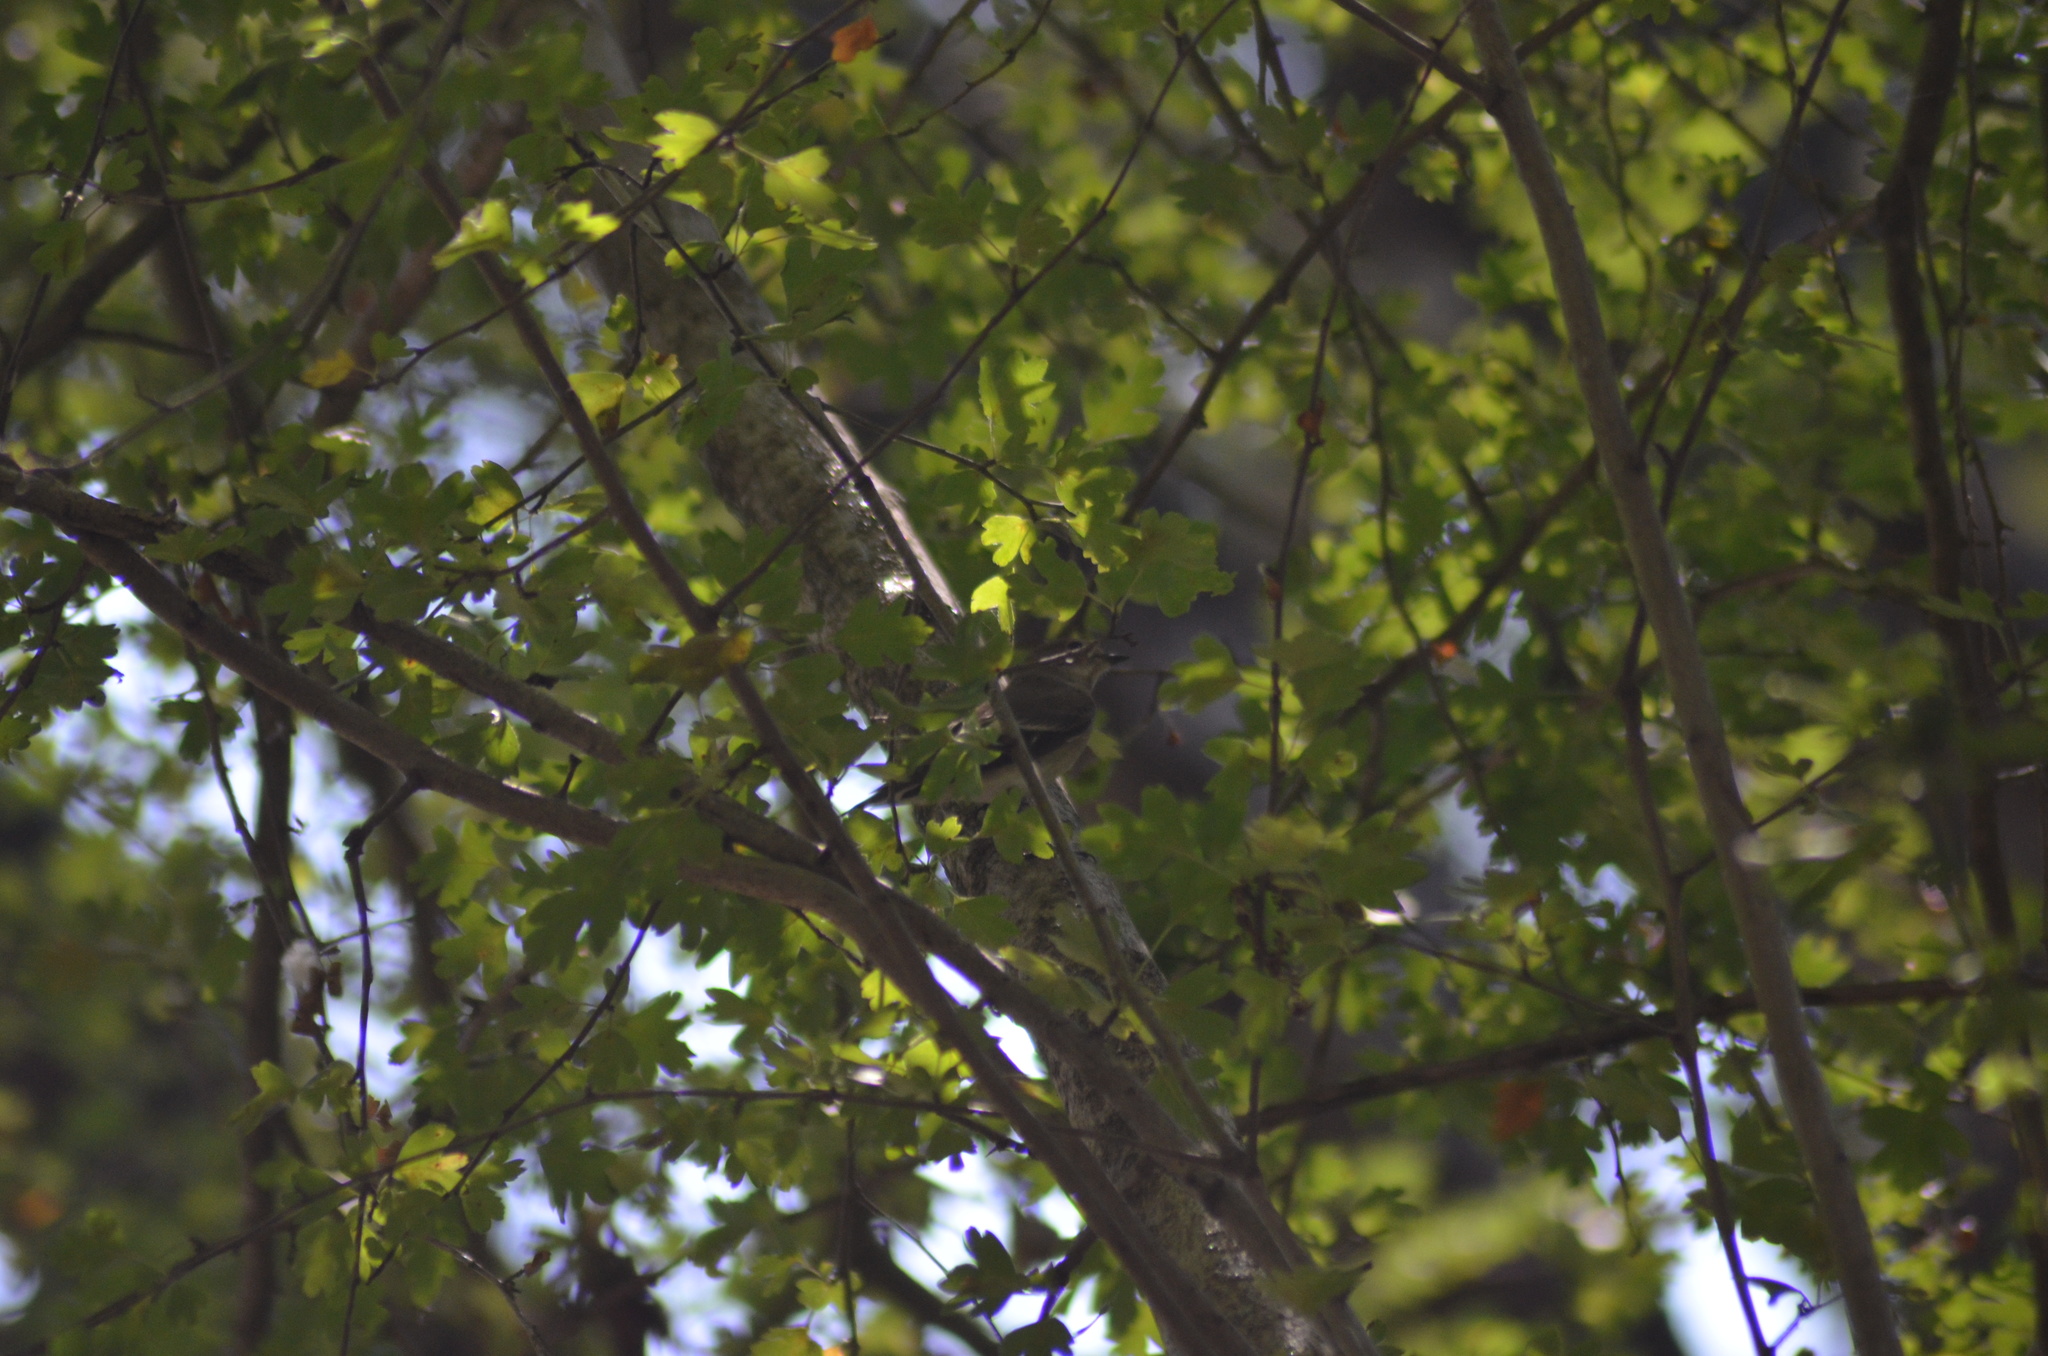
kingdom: Animalia
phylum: Chordata
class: Aves
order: Passeriformes
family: Muscicapidae
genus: Ficedula
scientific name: Ficedula hypoleuca
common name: European pied flycatcher
